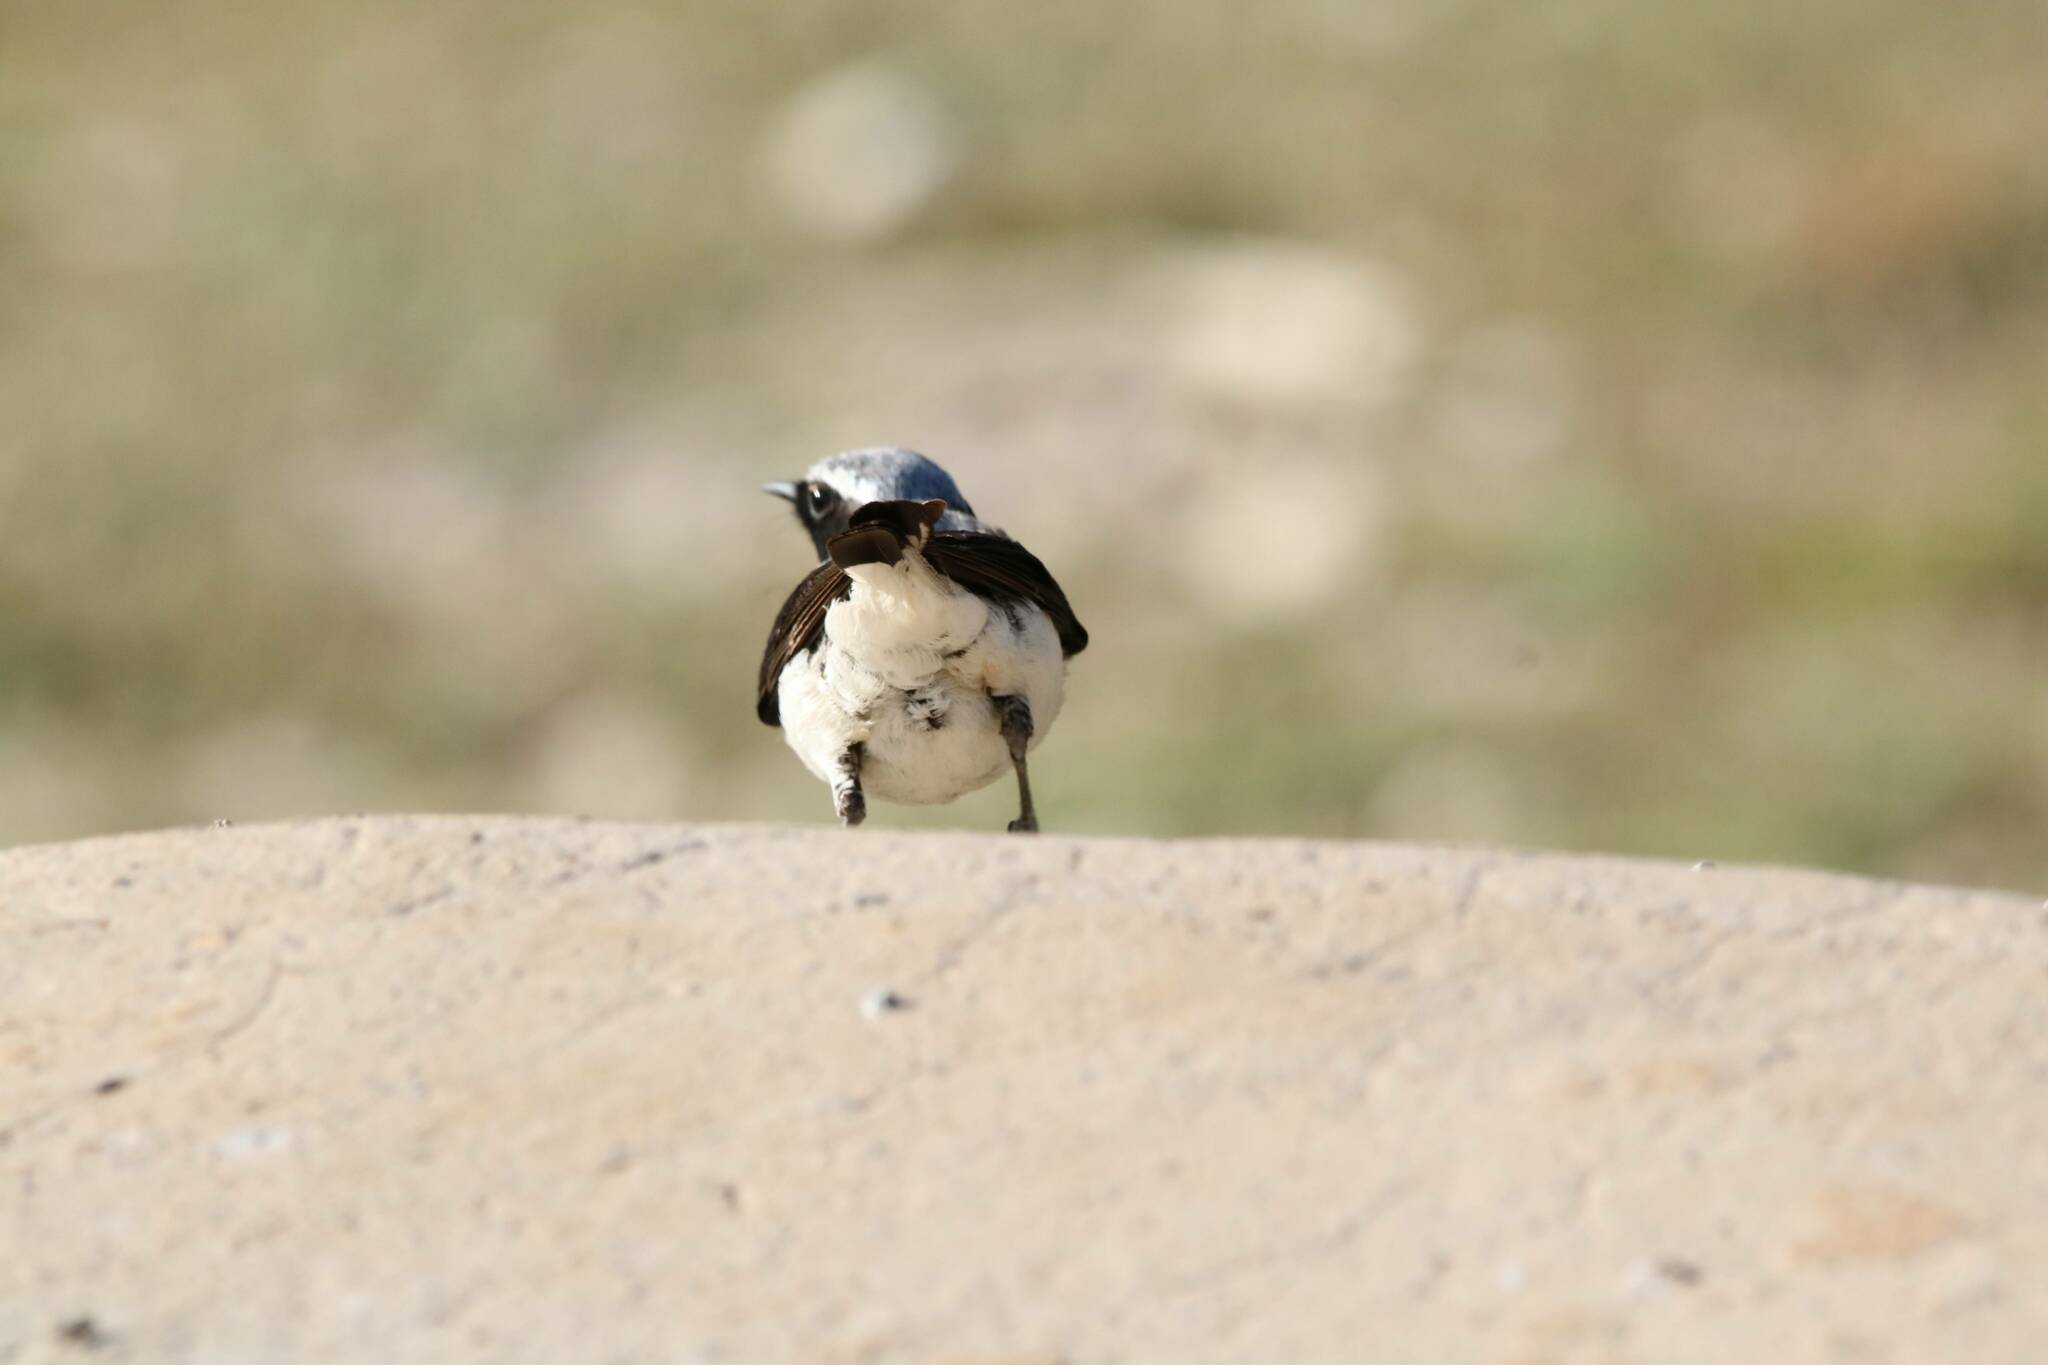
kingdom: Animalia
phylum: Chordata
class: Aves
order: Passeriformes
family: Muscicapidae
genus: Oenanthe
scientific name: Oenanthe oenanthe
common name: Northern wheatear
